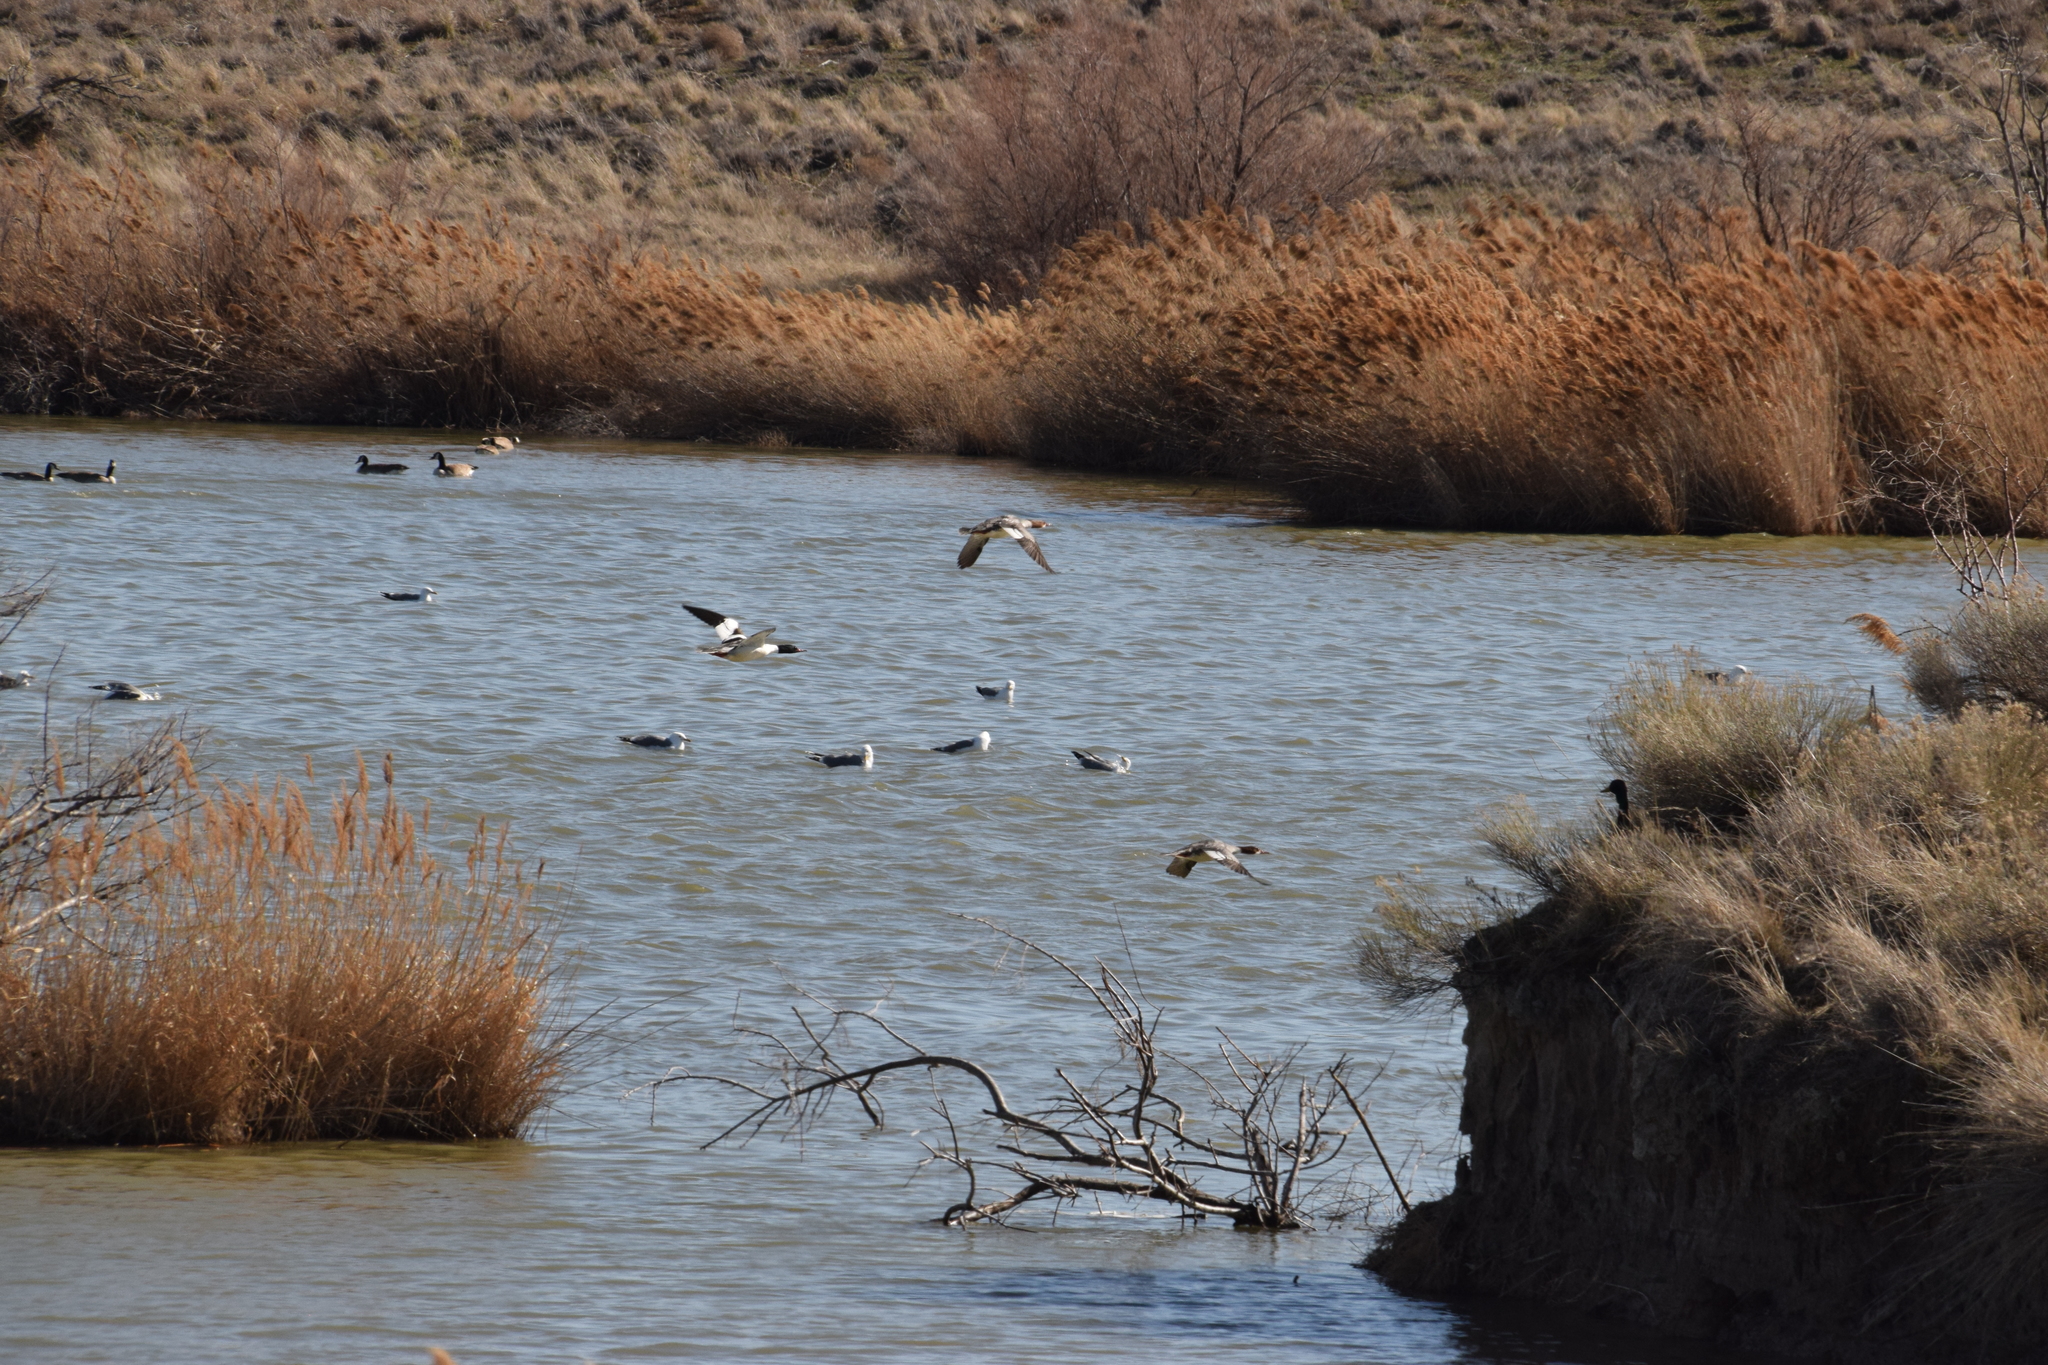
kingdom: Animalia
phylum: Chordata
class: Aves
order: Anseriformes
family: Anatidae
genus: Mergus
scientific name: Mergus merganser
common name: Common merganser
